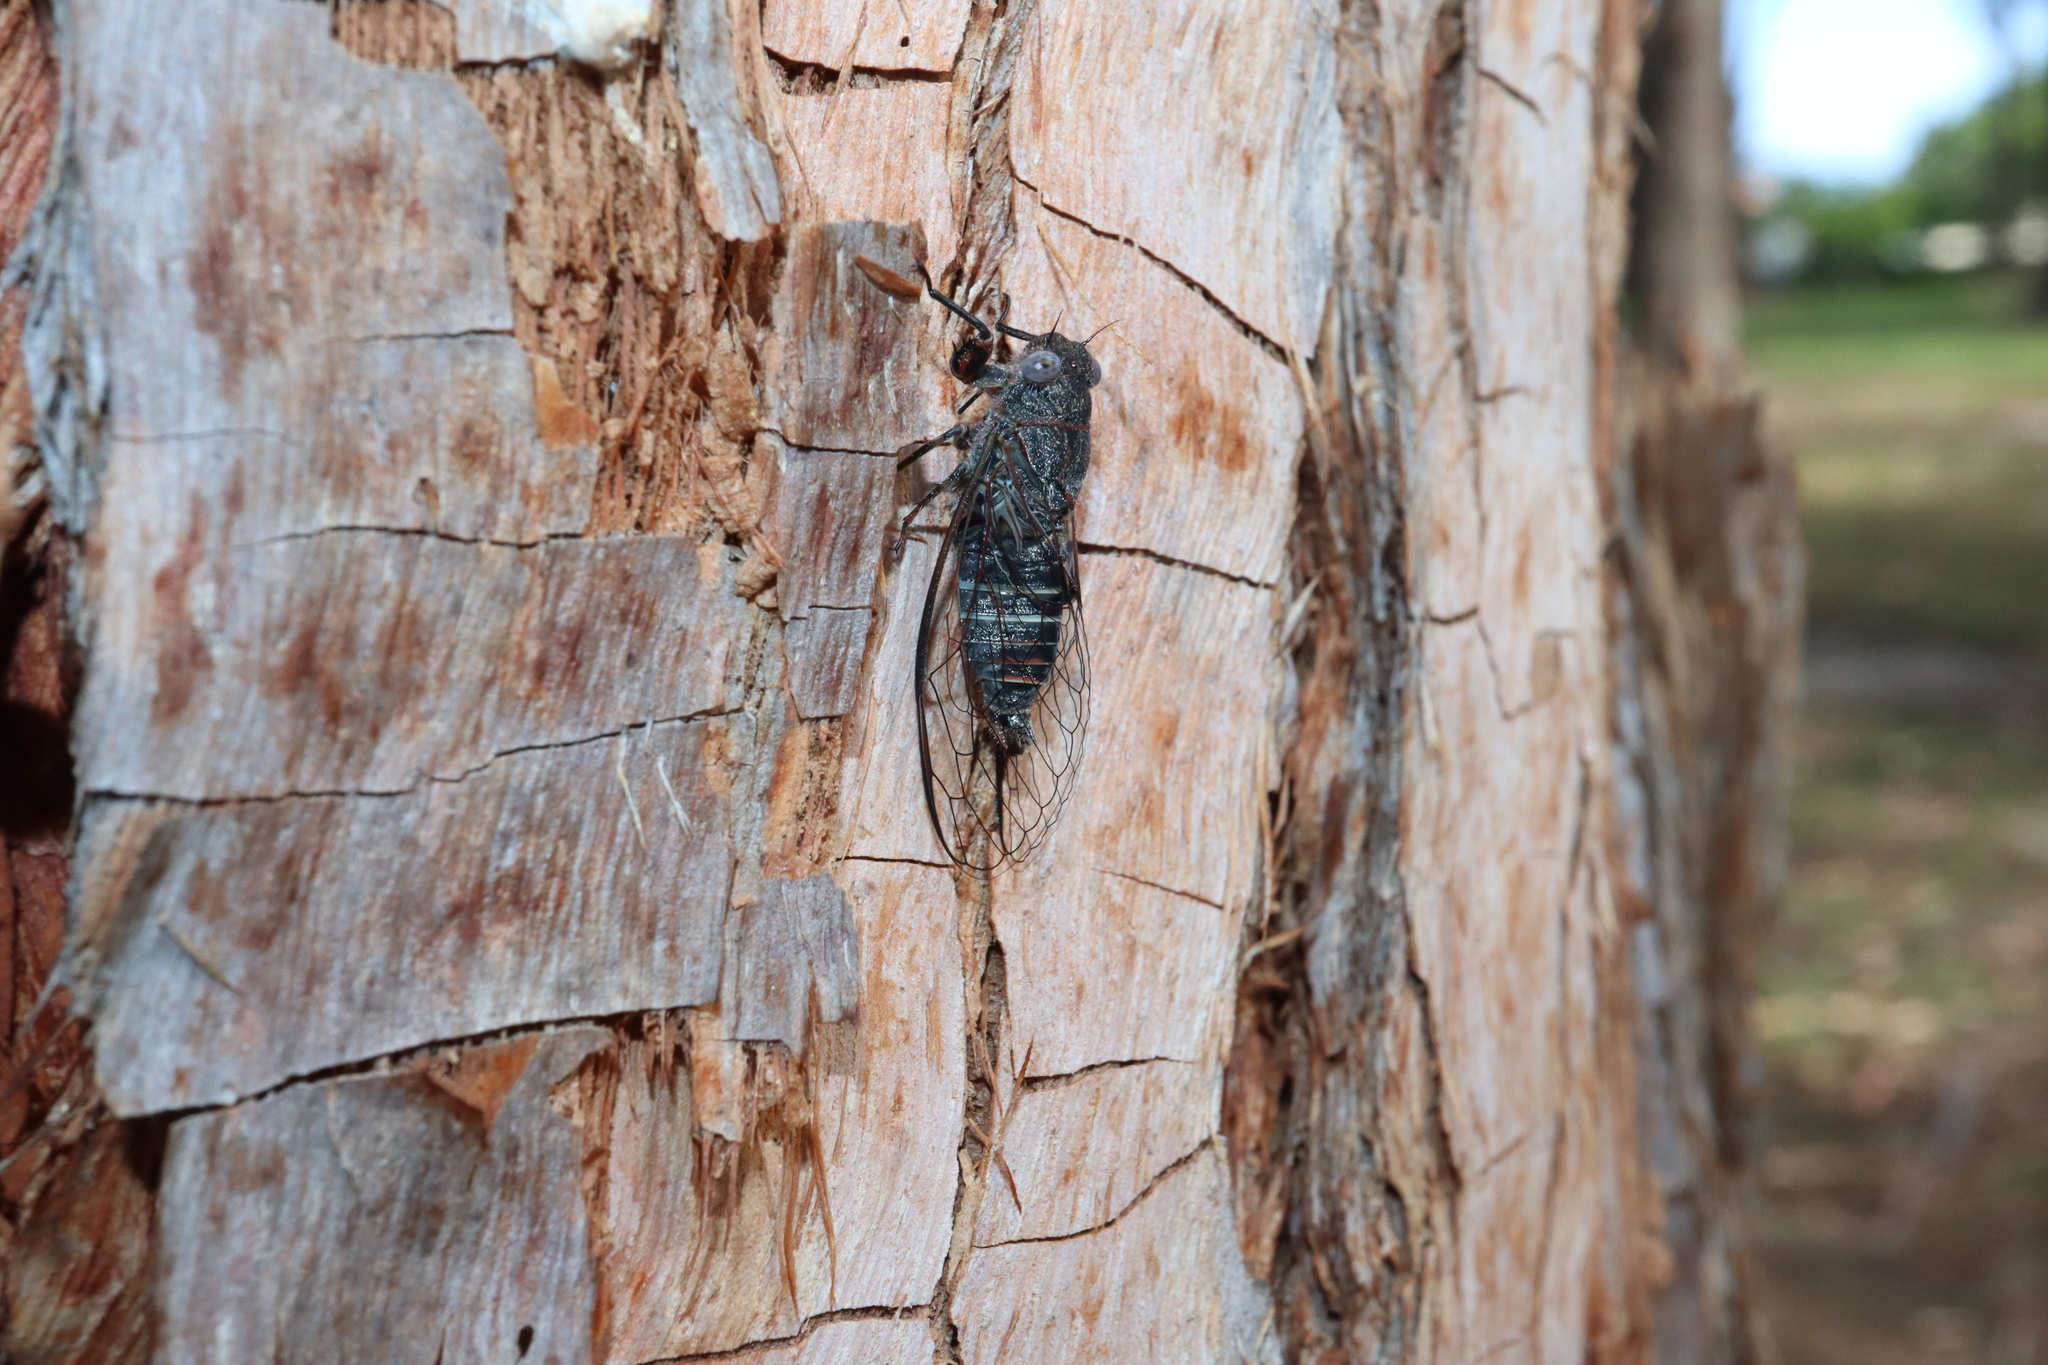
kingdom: Animalia
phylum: Arthropoda
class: Insecta
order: Hemiptera
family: Cicadidae
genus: Atrapsalta
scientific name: Atrapsalta fuscata
